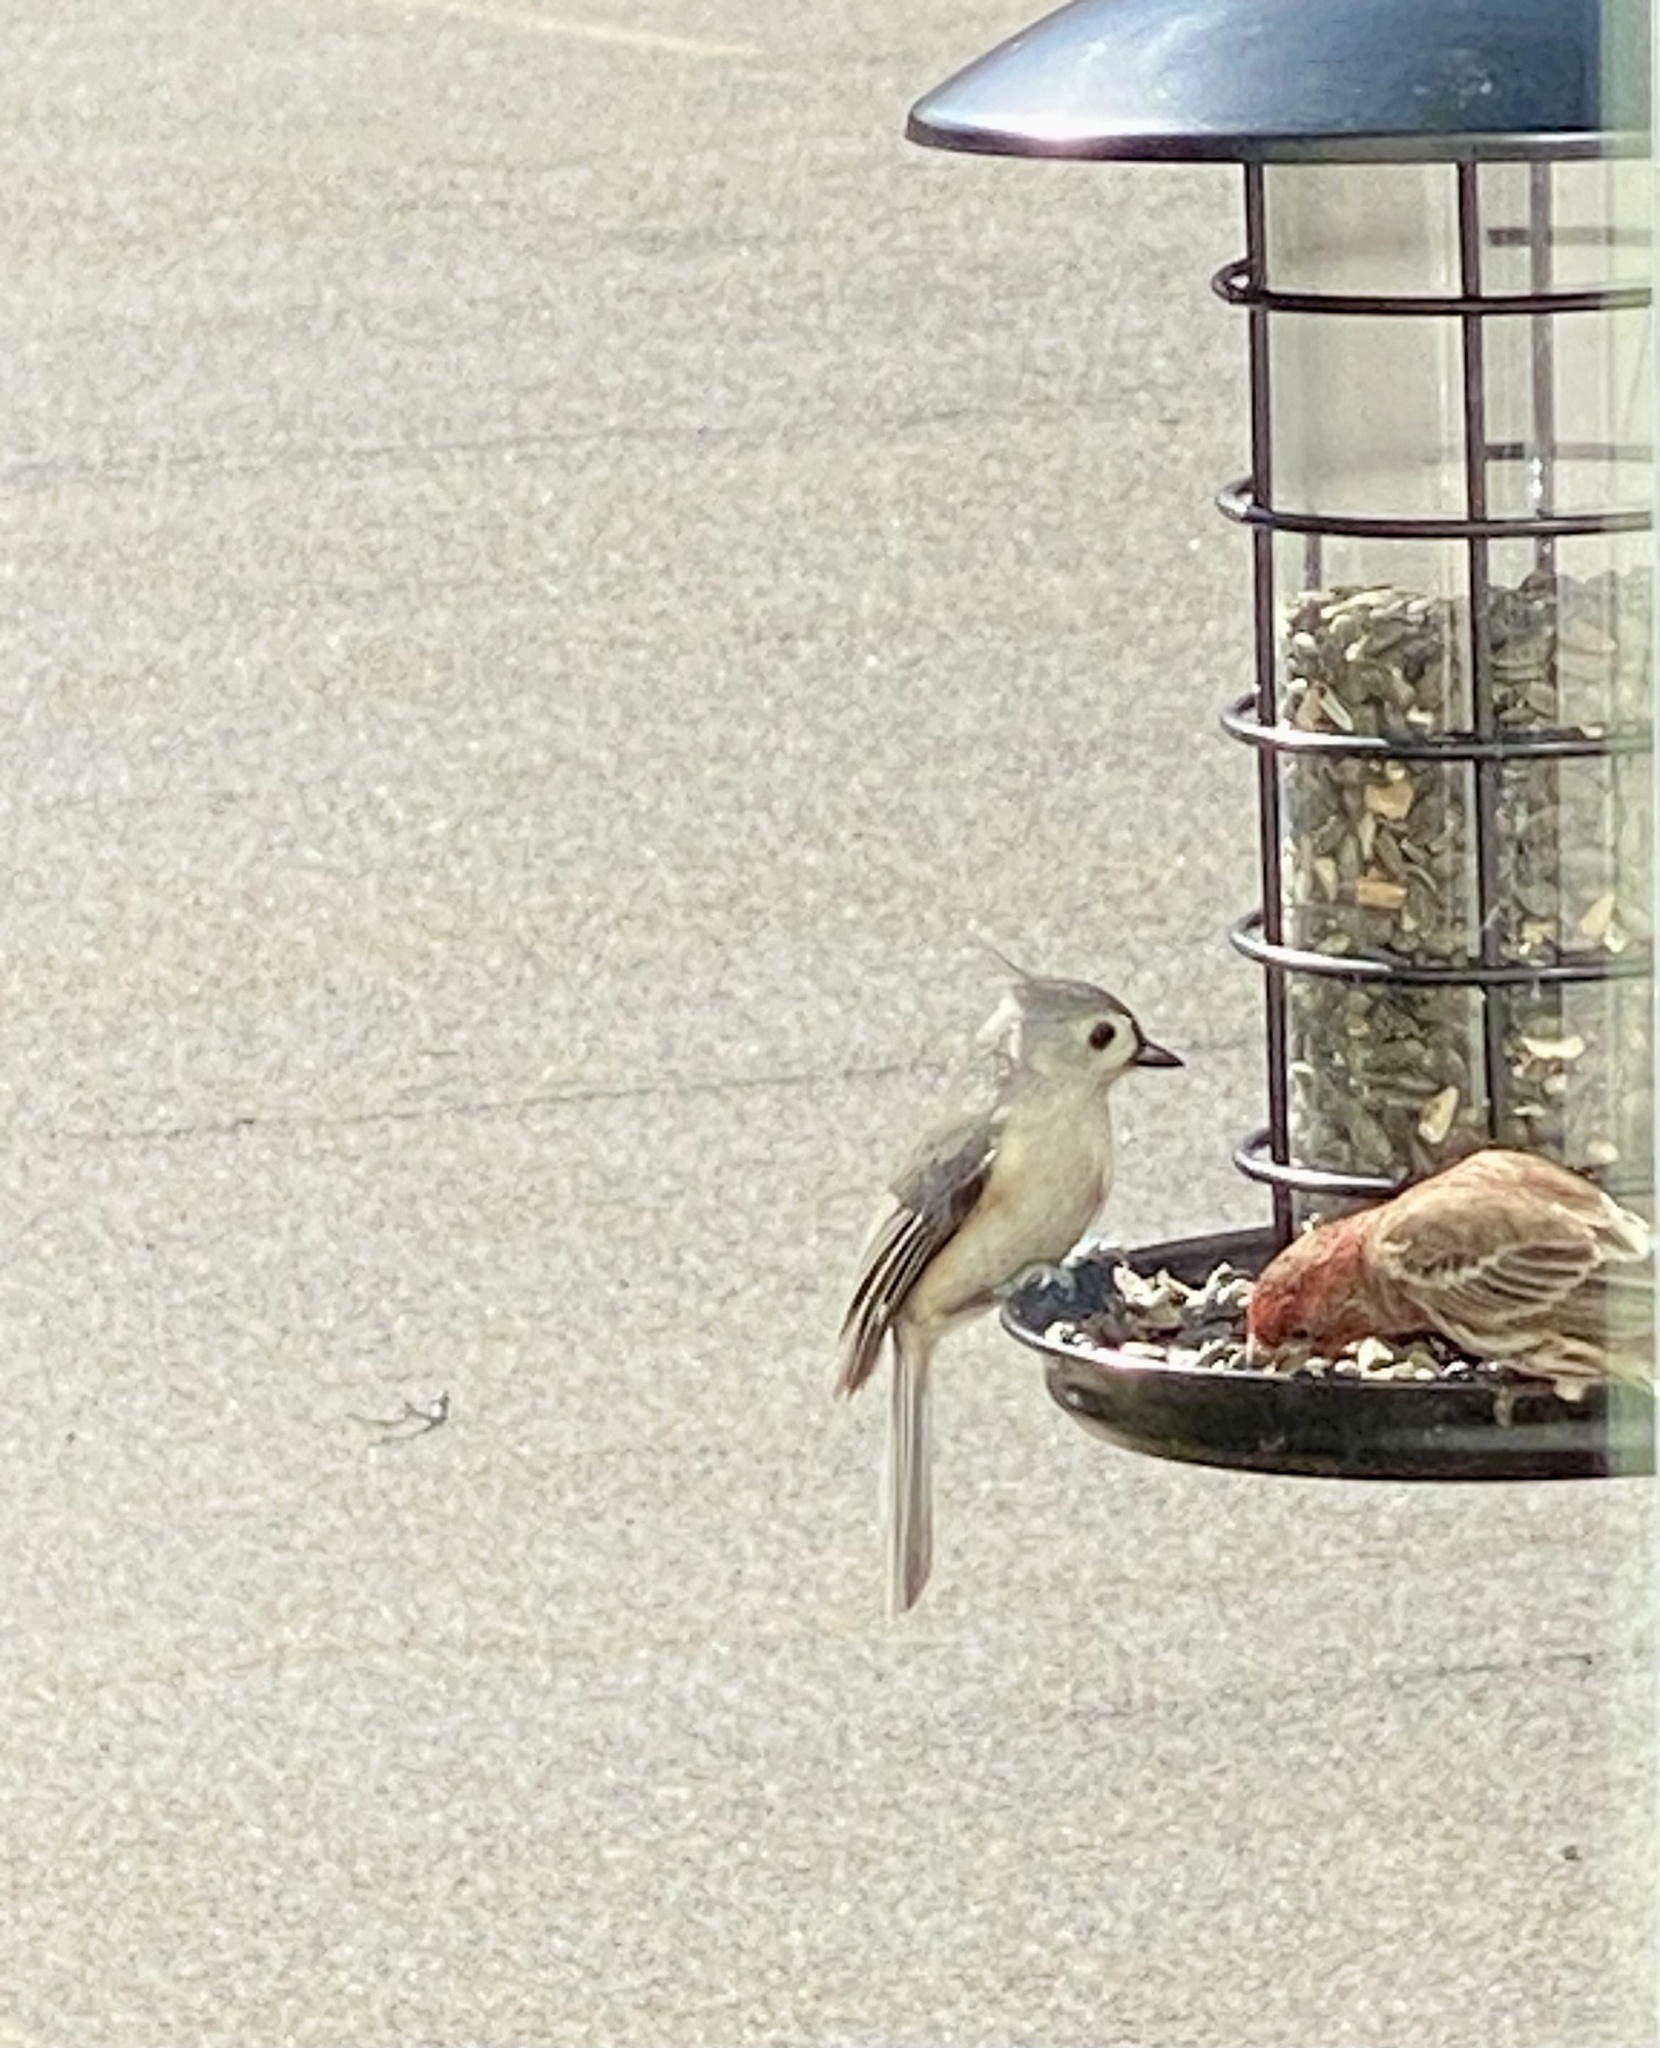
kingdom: Animalia
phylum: Chordata
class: Aves
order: Passeriformes
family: Paridae
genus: Baeolophus
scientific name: Baeolophus bicolor
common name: Tufted titmouse
